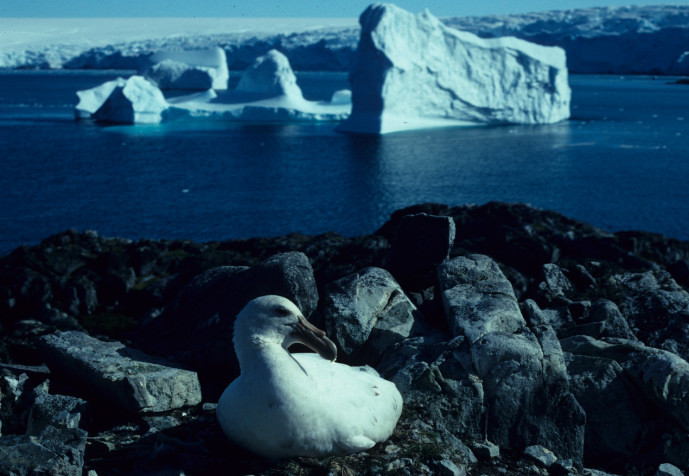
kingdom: Animalia
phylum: Chordata
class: Aves
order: Procellariiformes
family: Procellariidae
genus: Macronectes
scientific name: Macronectes giganteus
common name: Southern giant petrel
